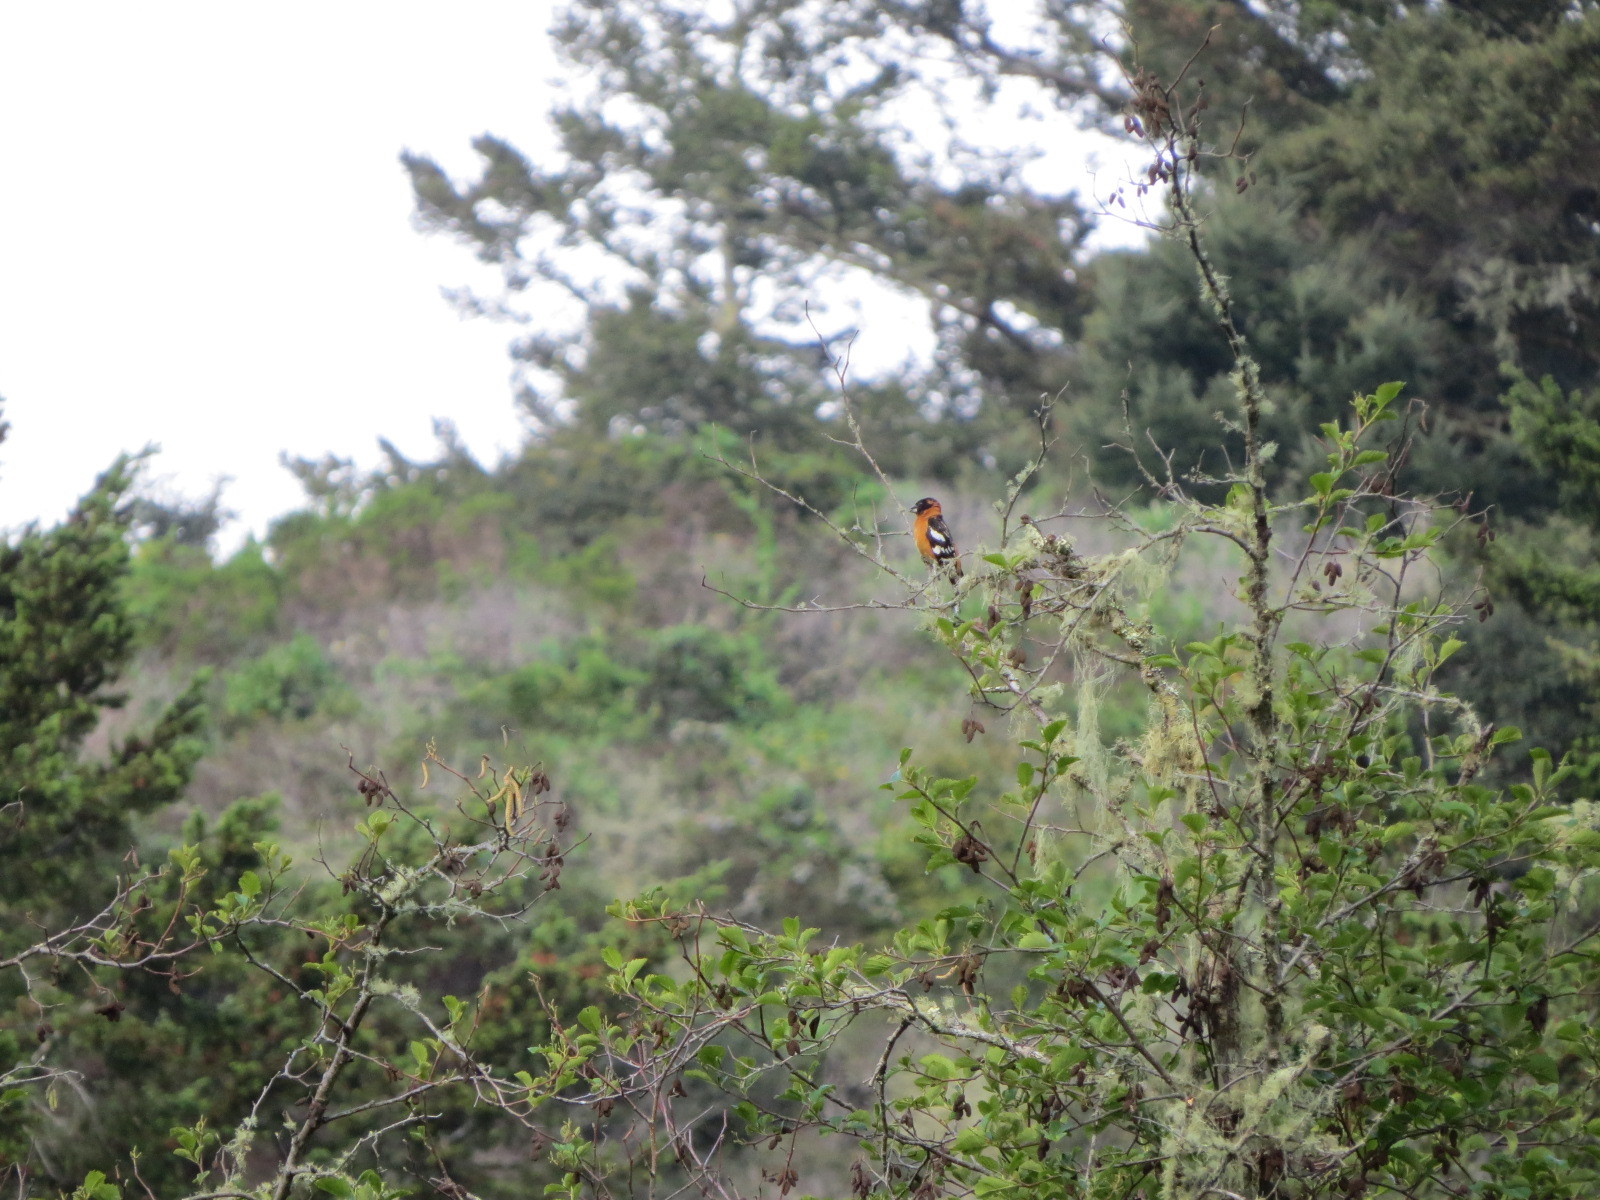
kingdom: Animalia
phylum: Chordata
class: Aves
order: Passeriformes
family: Cardinalidae
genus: Pheucticus
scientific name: Pheucticus melanocephalus
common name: Black-headed grosbeak
